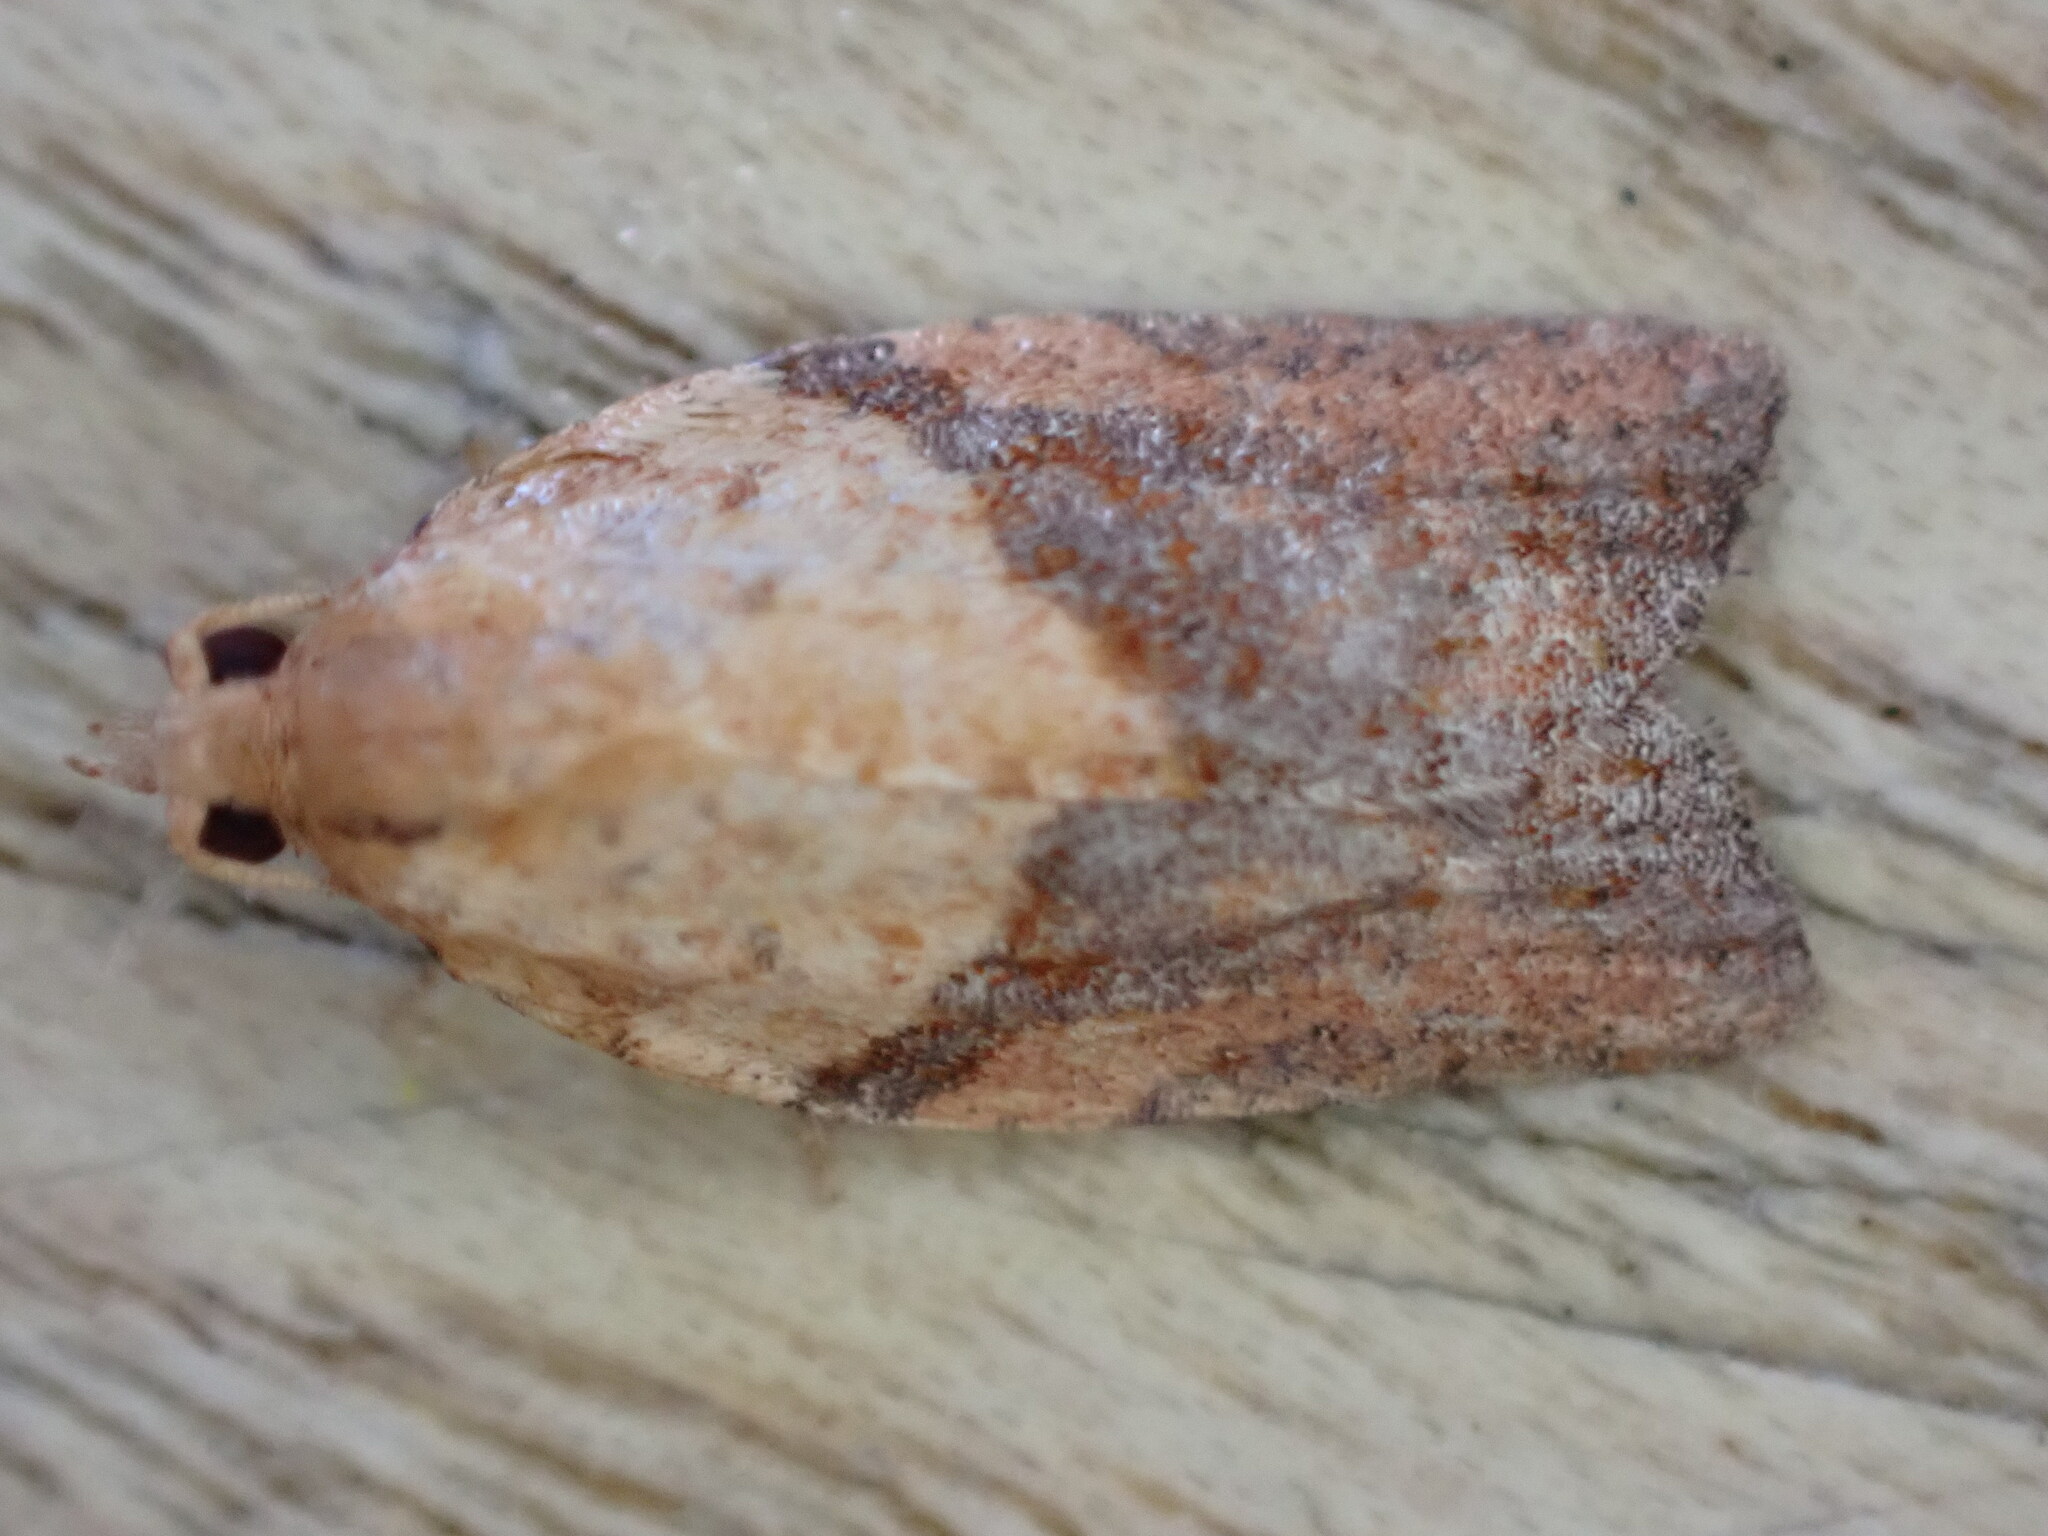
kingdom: Animalia
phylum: Arthropoda
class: Insecta
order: Lepidoptera
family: Tortricidae
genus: Epiphyas
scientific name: Epiphyas postvittana
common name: Light brown apple moth
